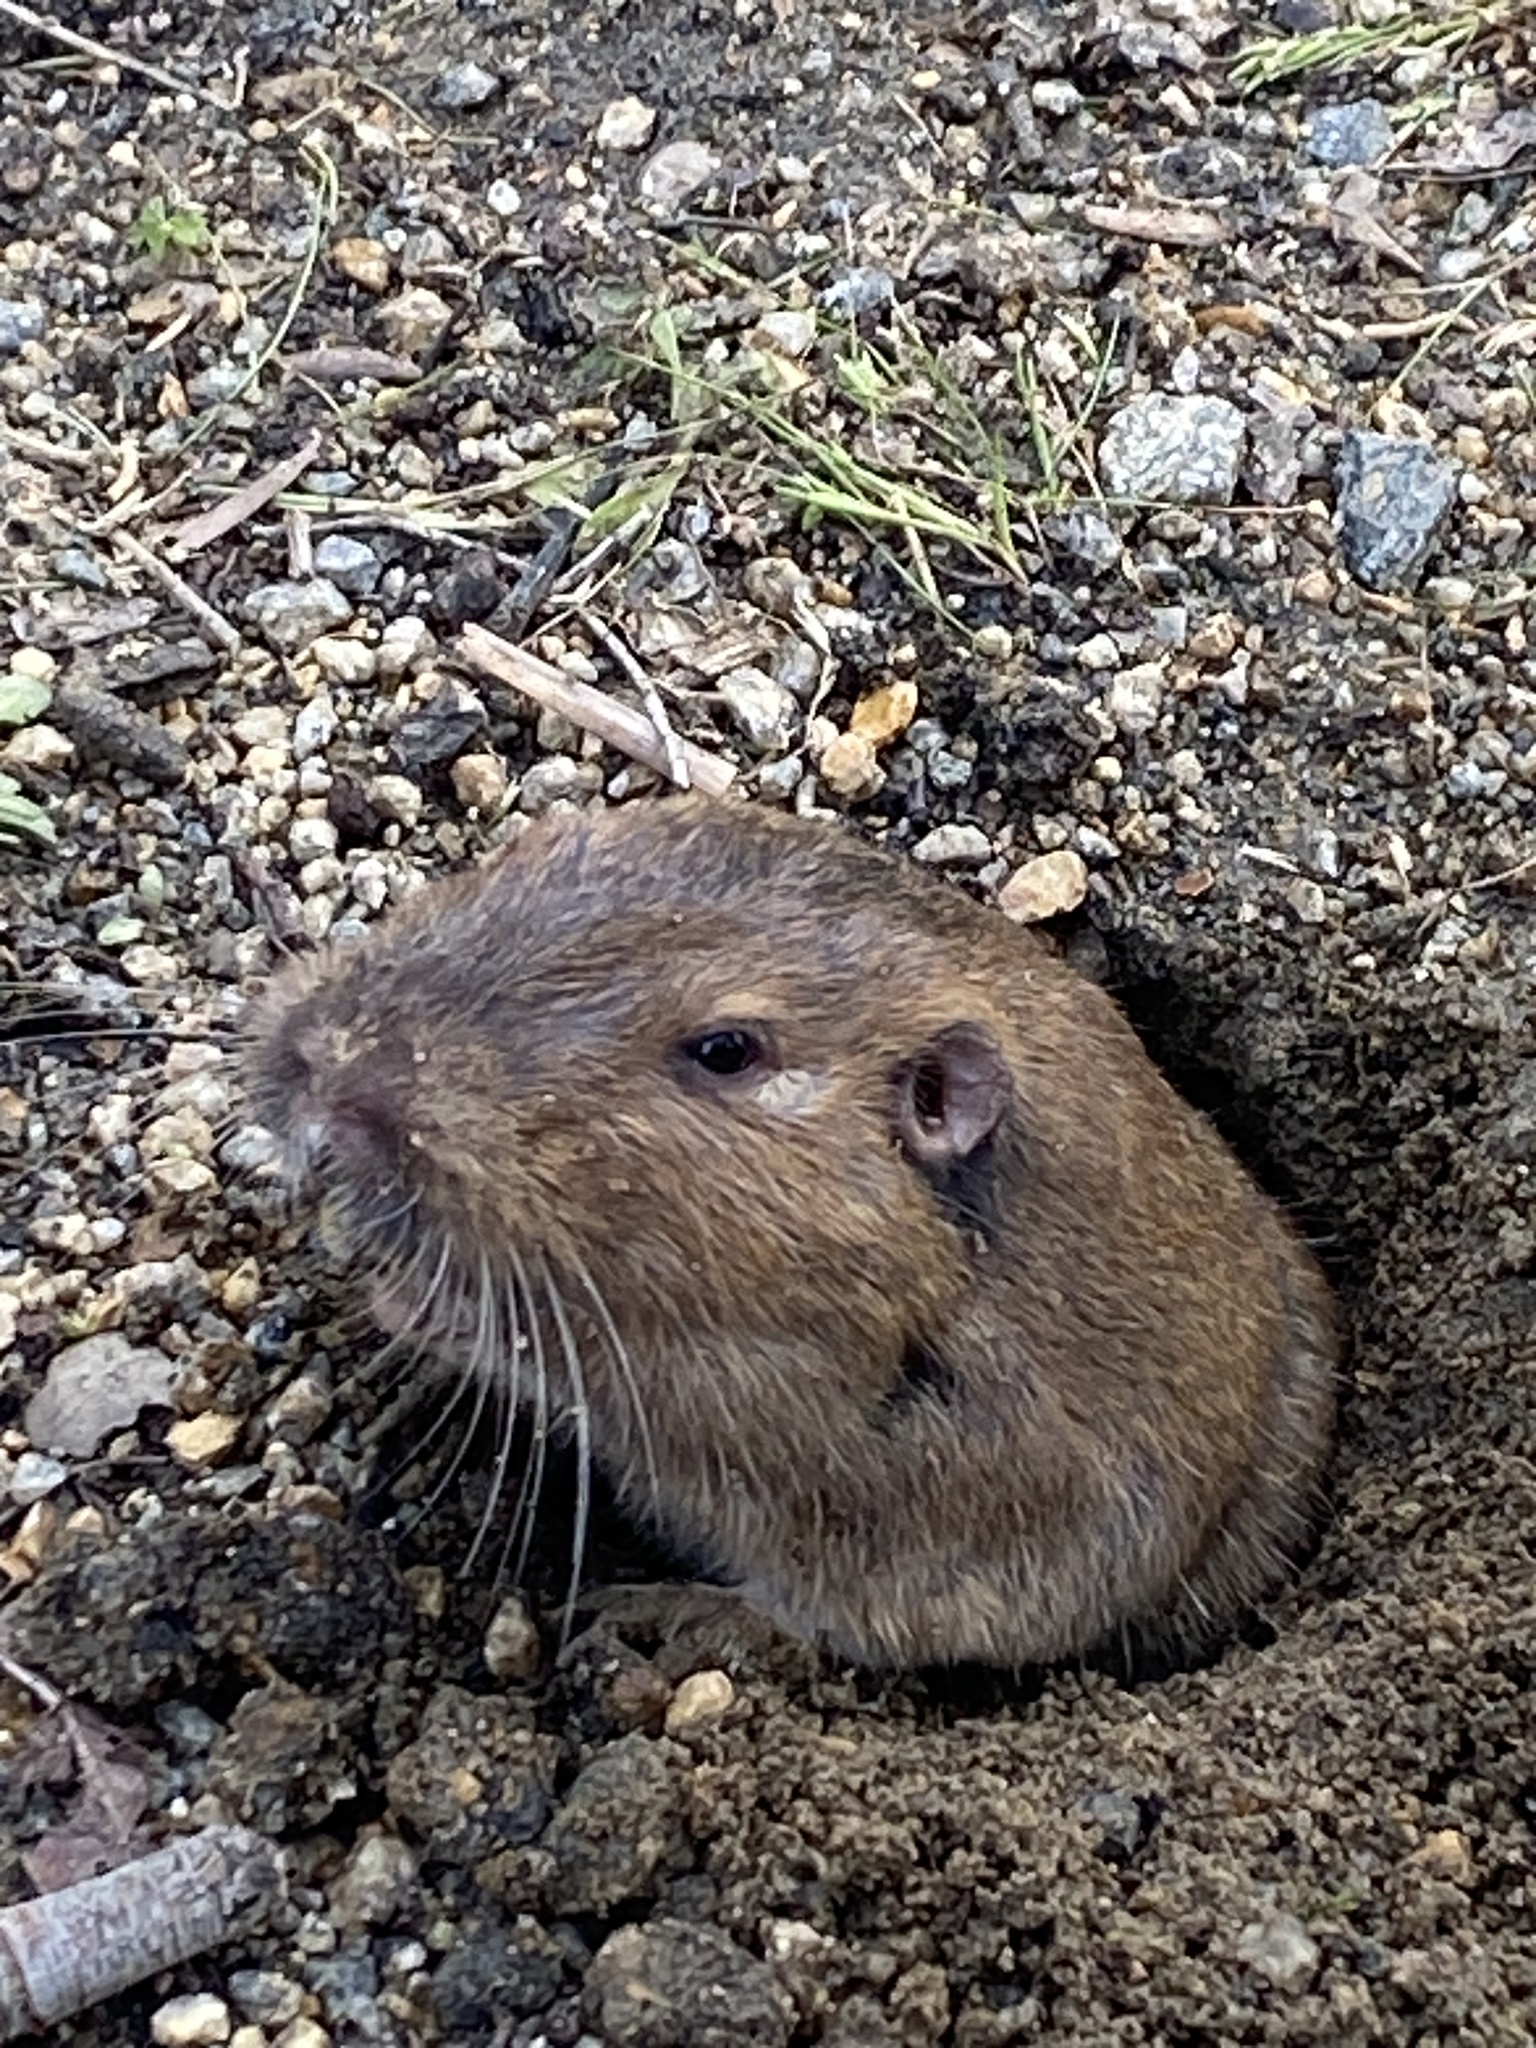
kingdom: Animalia
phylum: Chordata
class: Mammalia
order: Rodentia
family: Geomyidae
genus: Thomomys
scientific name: Thomomys bottae
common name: Botta's pocket gopher
